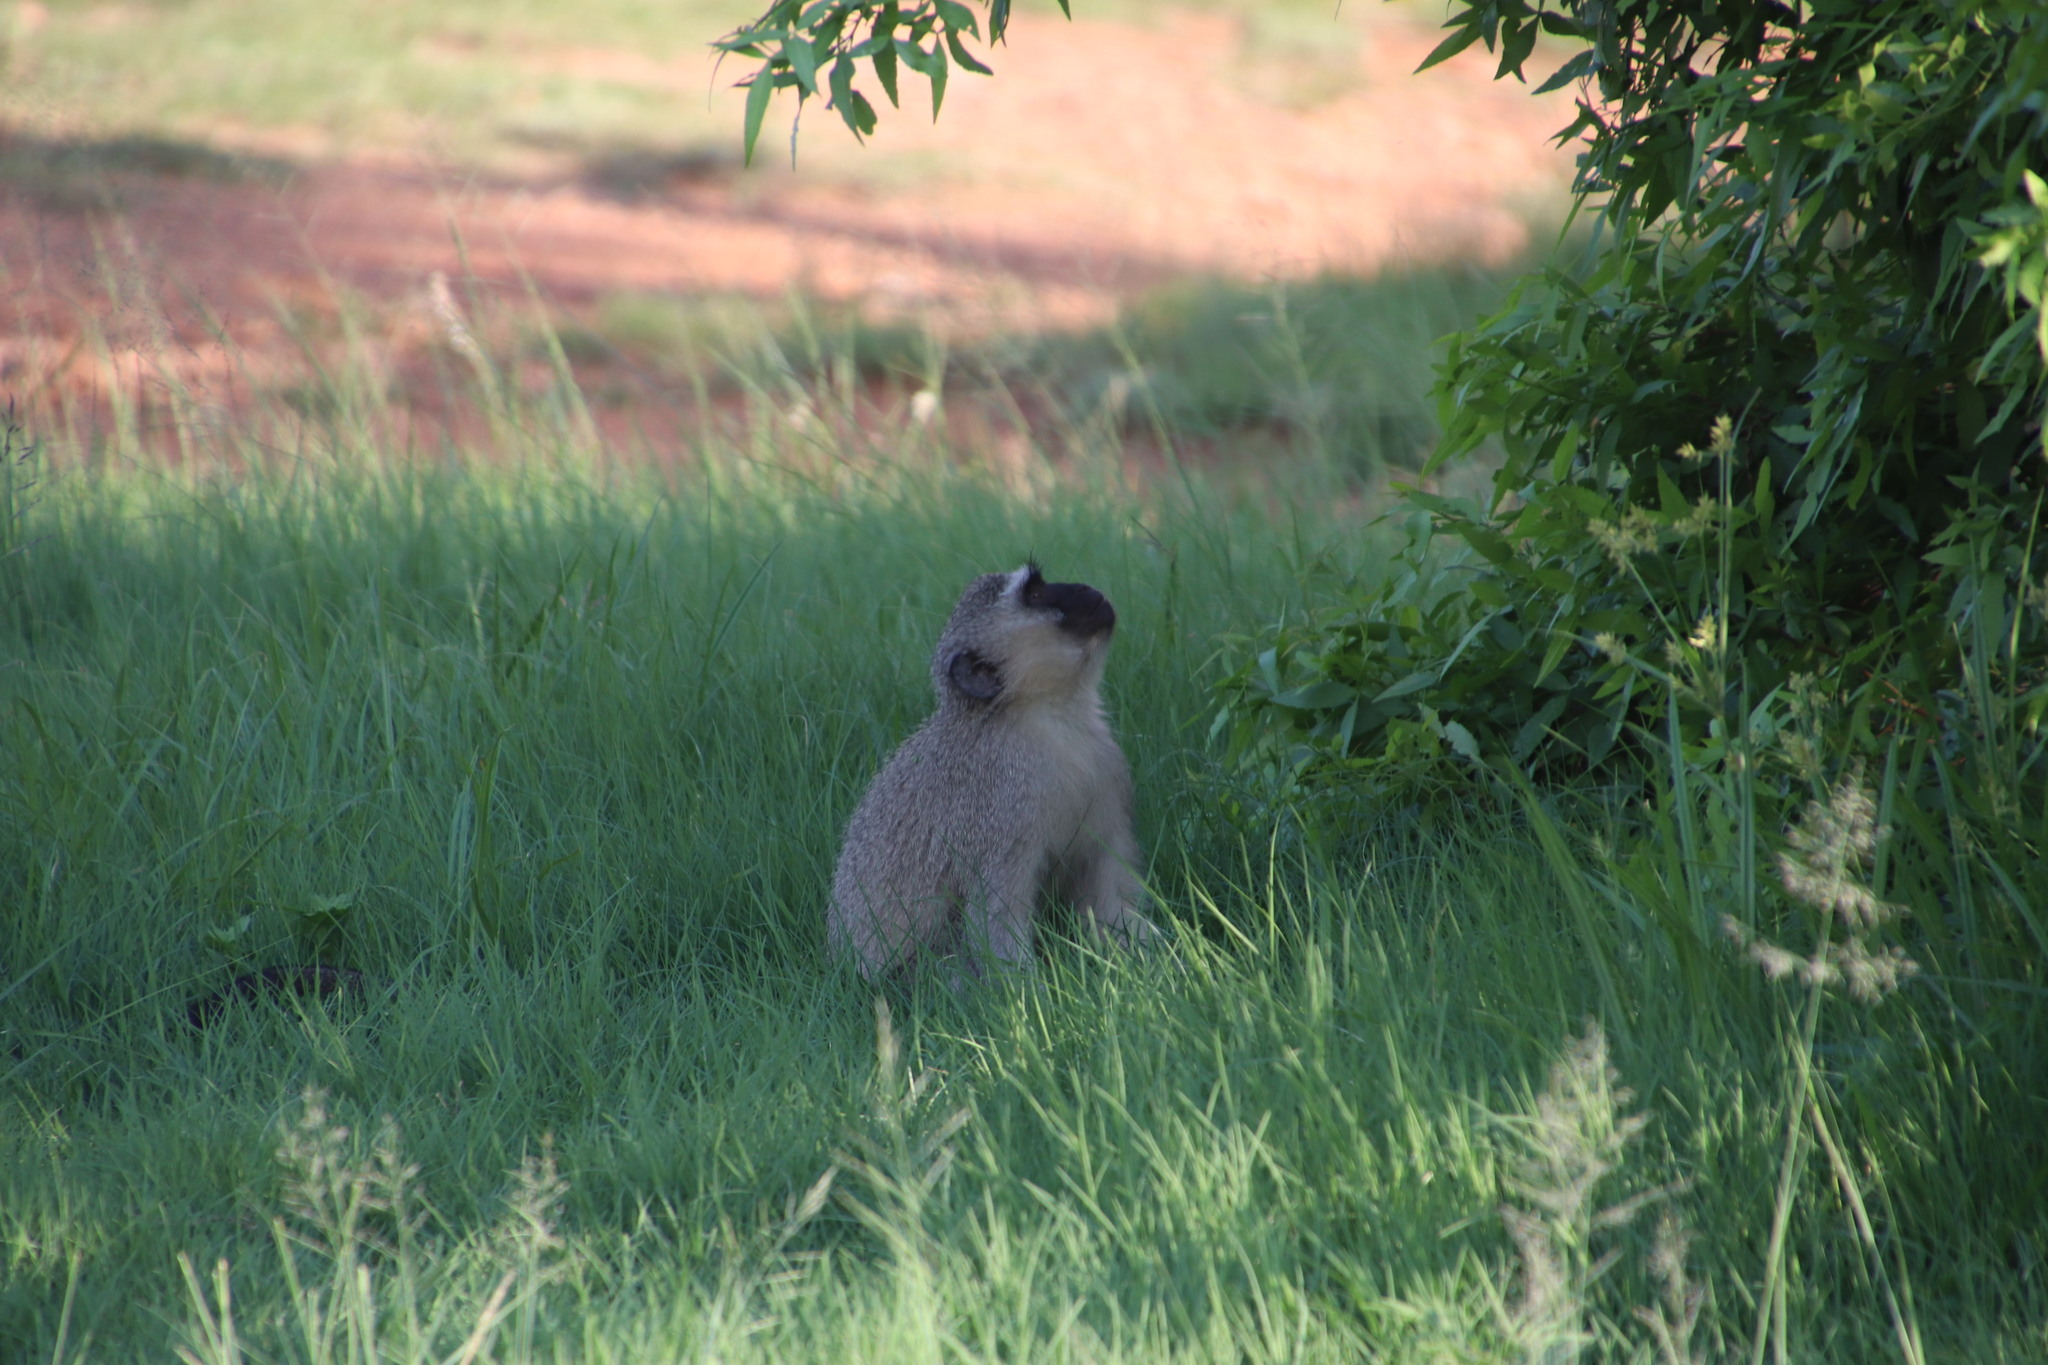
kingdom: Animalia
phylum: Chordata
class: Mammalia
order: Primates
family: Cercopithecidae
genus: Chlorocebus
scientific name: Chlorocebus pygerythrus
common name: Vervet monkey
